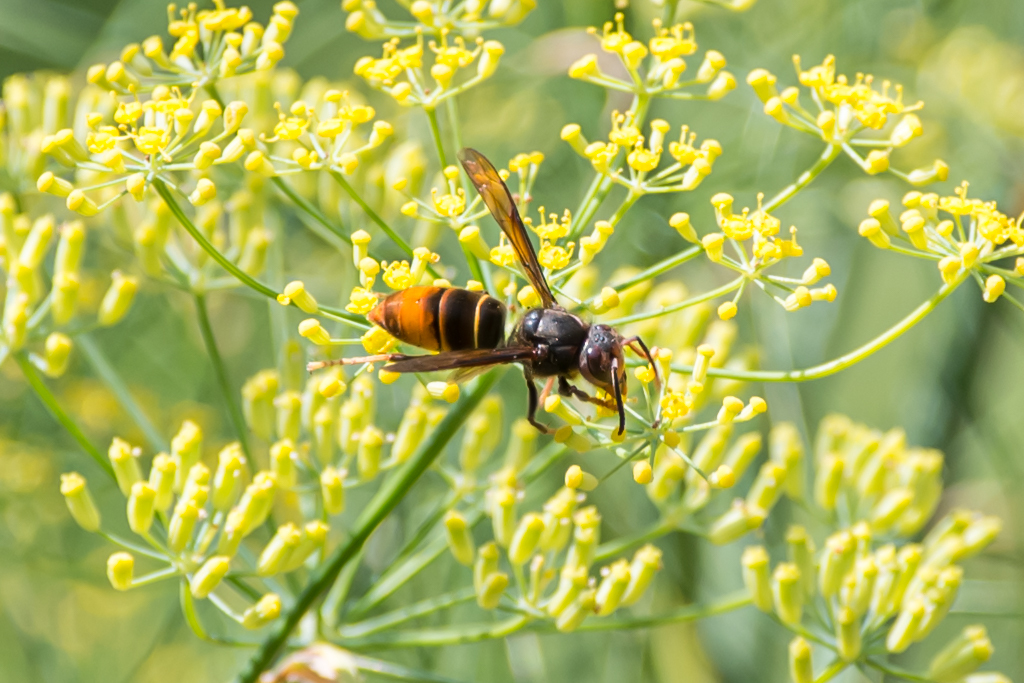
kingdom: Animalia
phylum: Arthropoda
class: Insecta
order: Hymenoptera
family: Vespidae
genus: Vespa
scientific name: Vespa velutina
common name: Asian hornet
